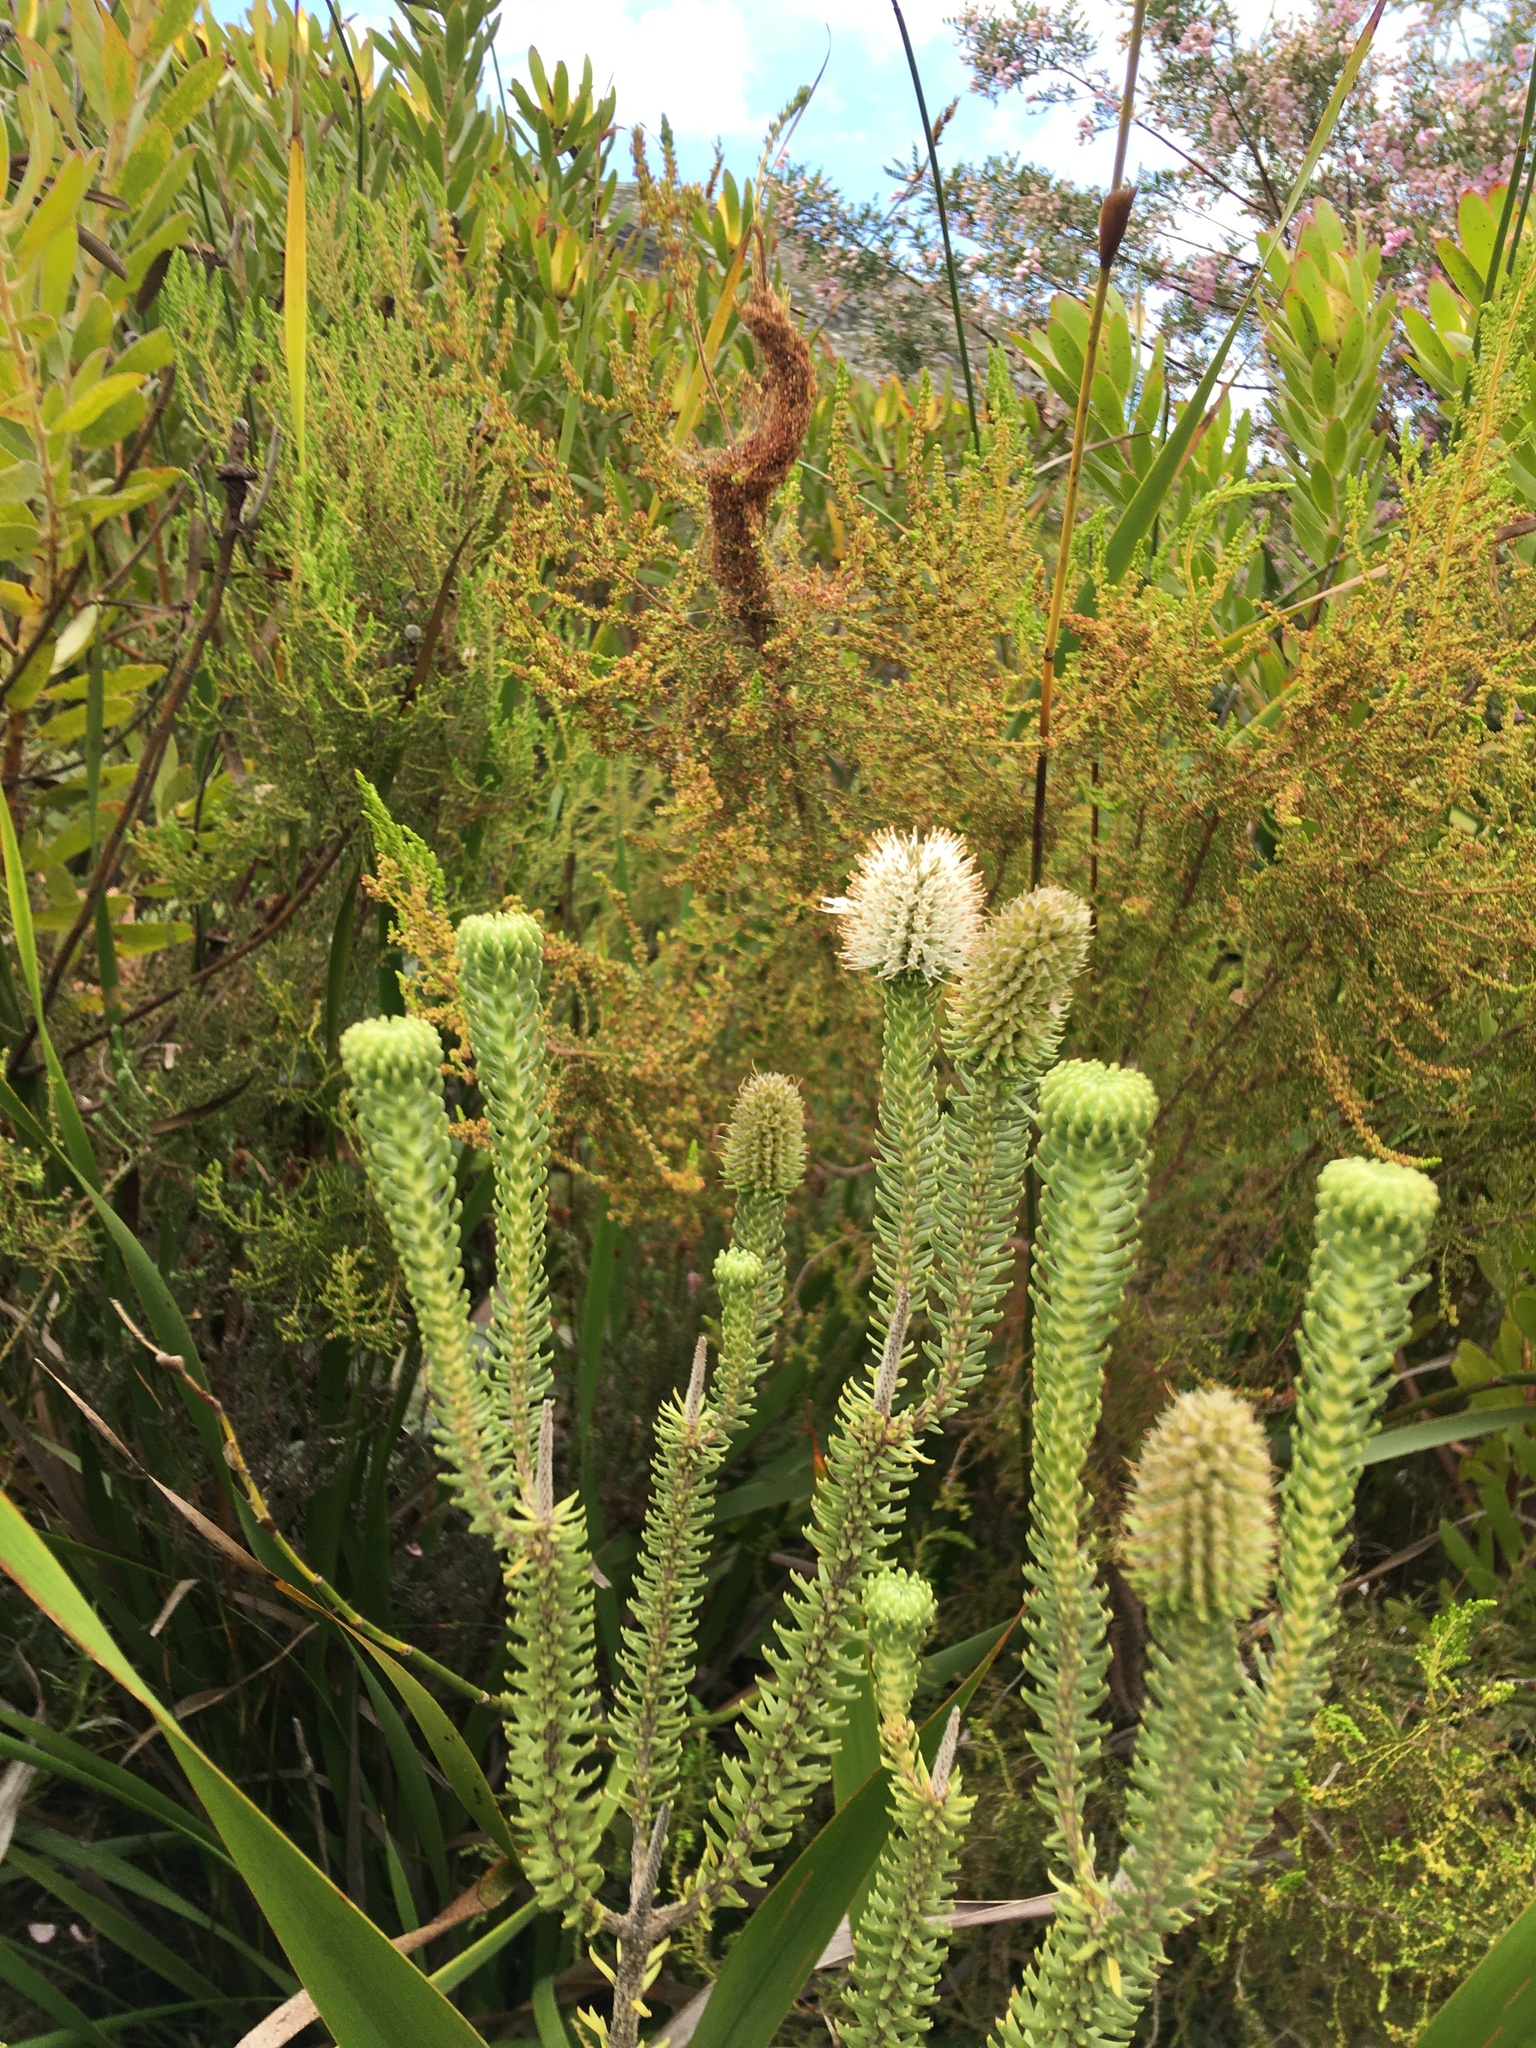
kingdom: Plantae
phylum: Tracheophyta
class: Magnoliopsida
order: Lamiales
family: Stilbaceae
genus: Stilbe
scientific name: Stilbe vestita
